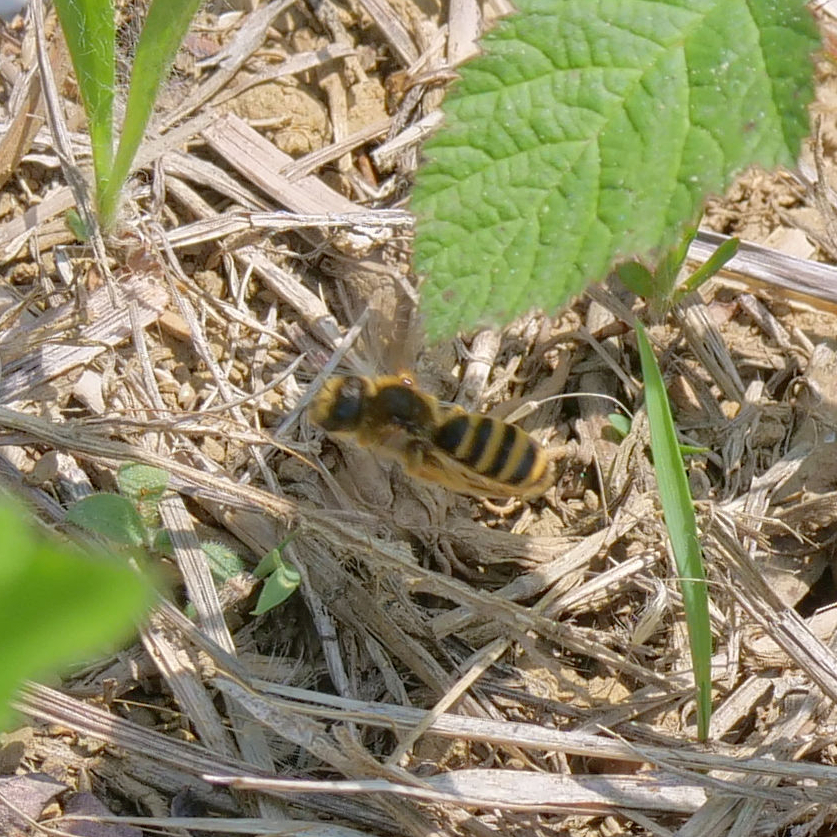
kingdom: Animalia
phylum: Arthropoda
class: Insecta
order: Hymenoptera
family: Halictidae
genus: Halictus
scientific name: Halictus scabiosae
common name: Great banded furrow bee
